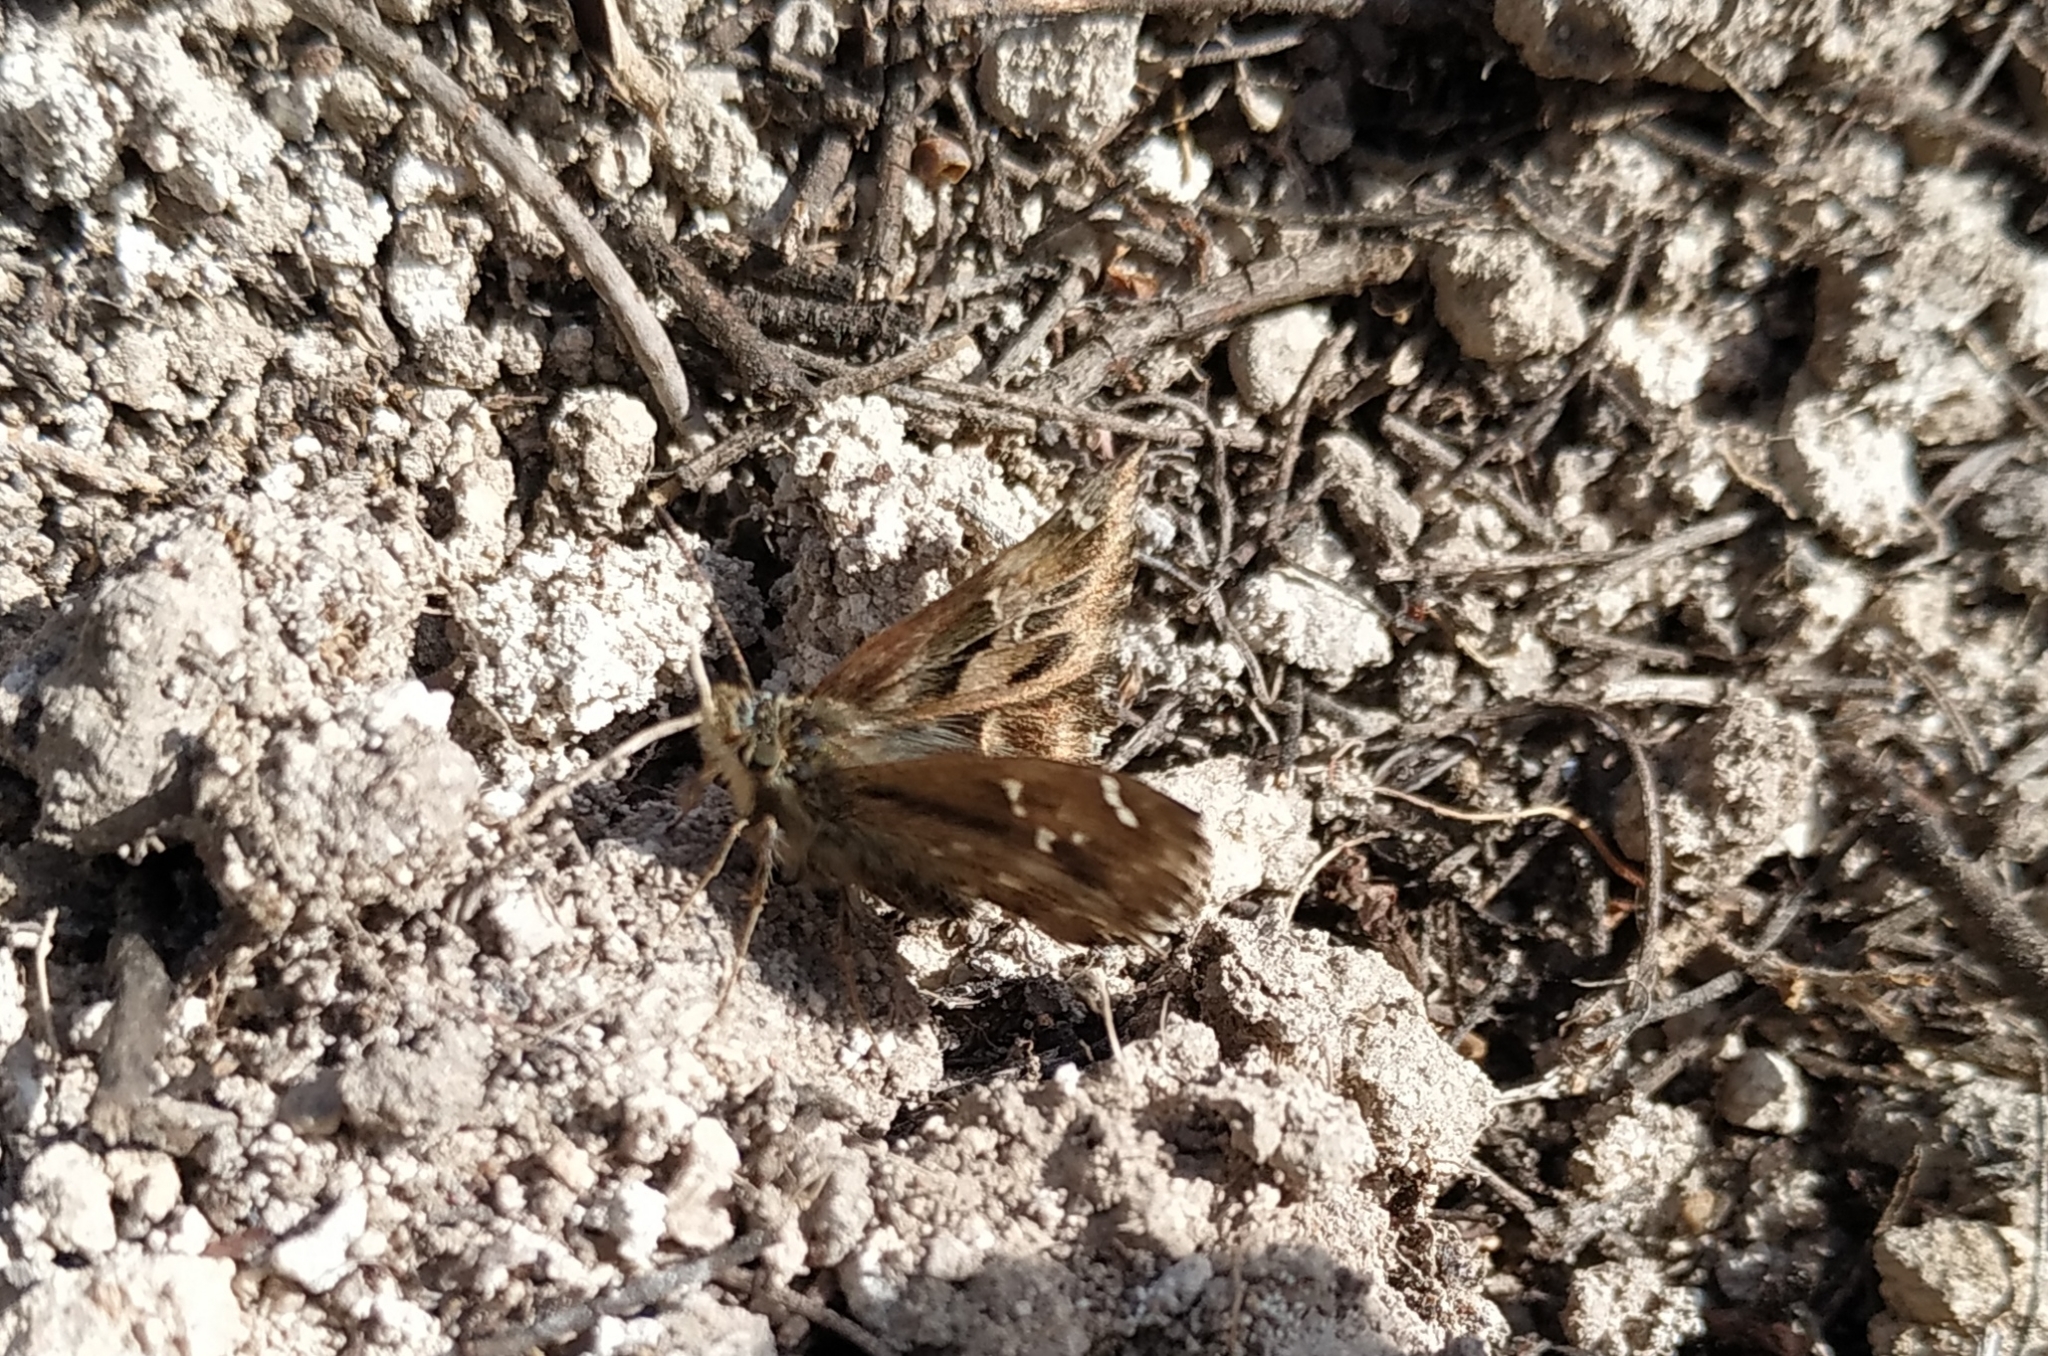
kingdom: Animalia
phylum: Arthropoda
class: Insecta
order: Lepidoptera
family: Hesperiidae
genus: Carcharodus
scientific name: Carcharodus alceae
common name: Mallow skipper
